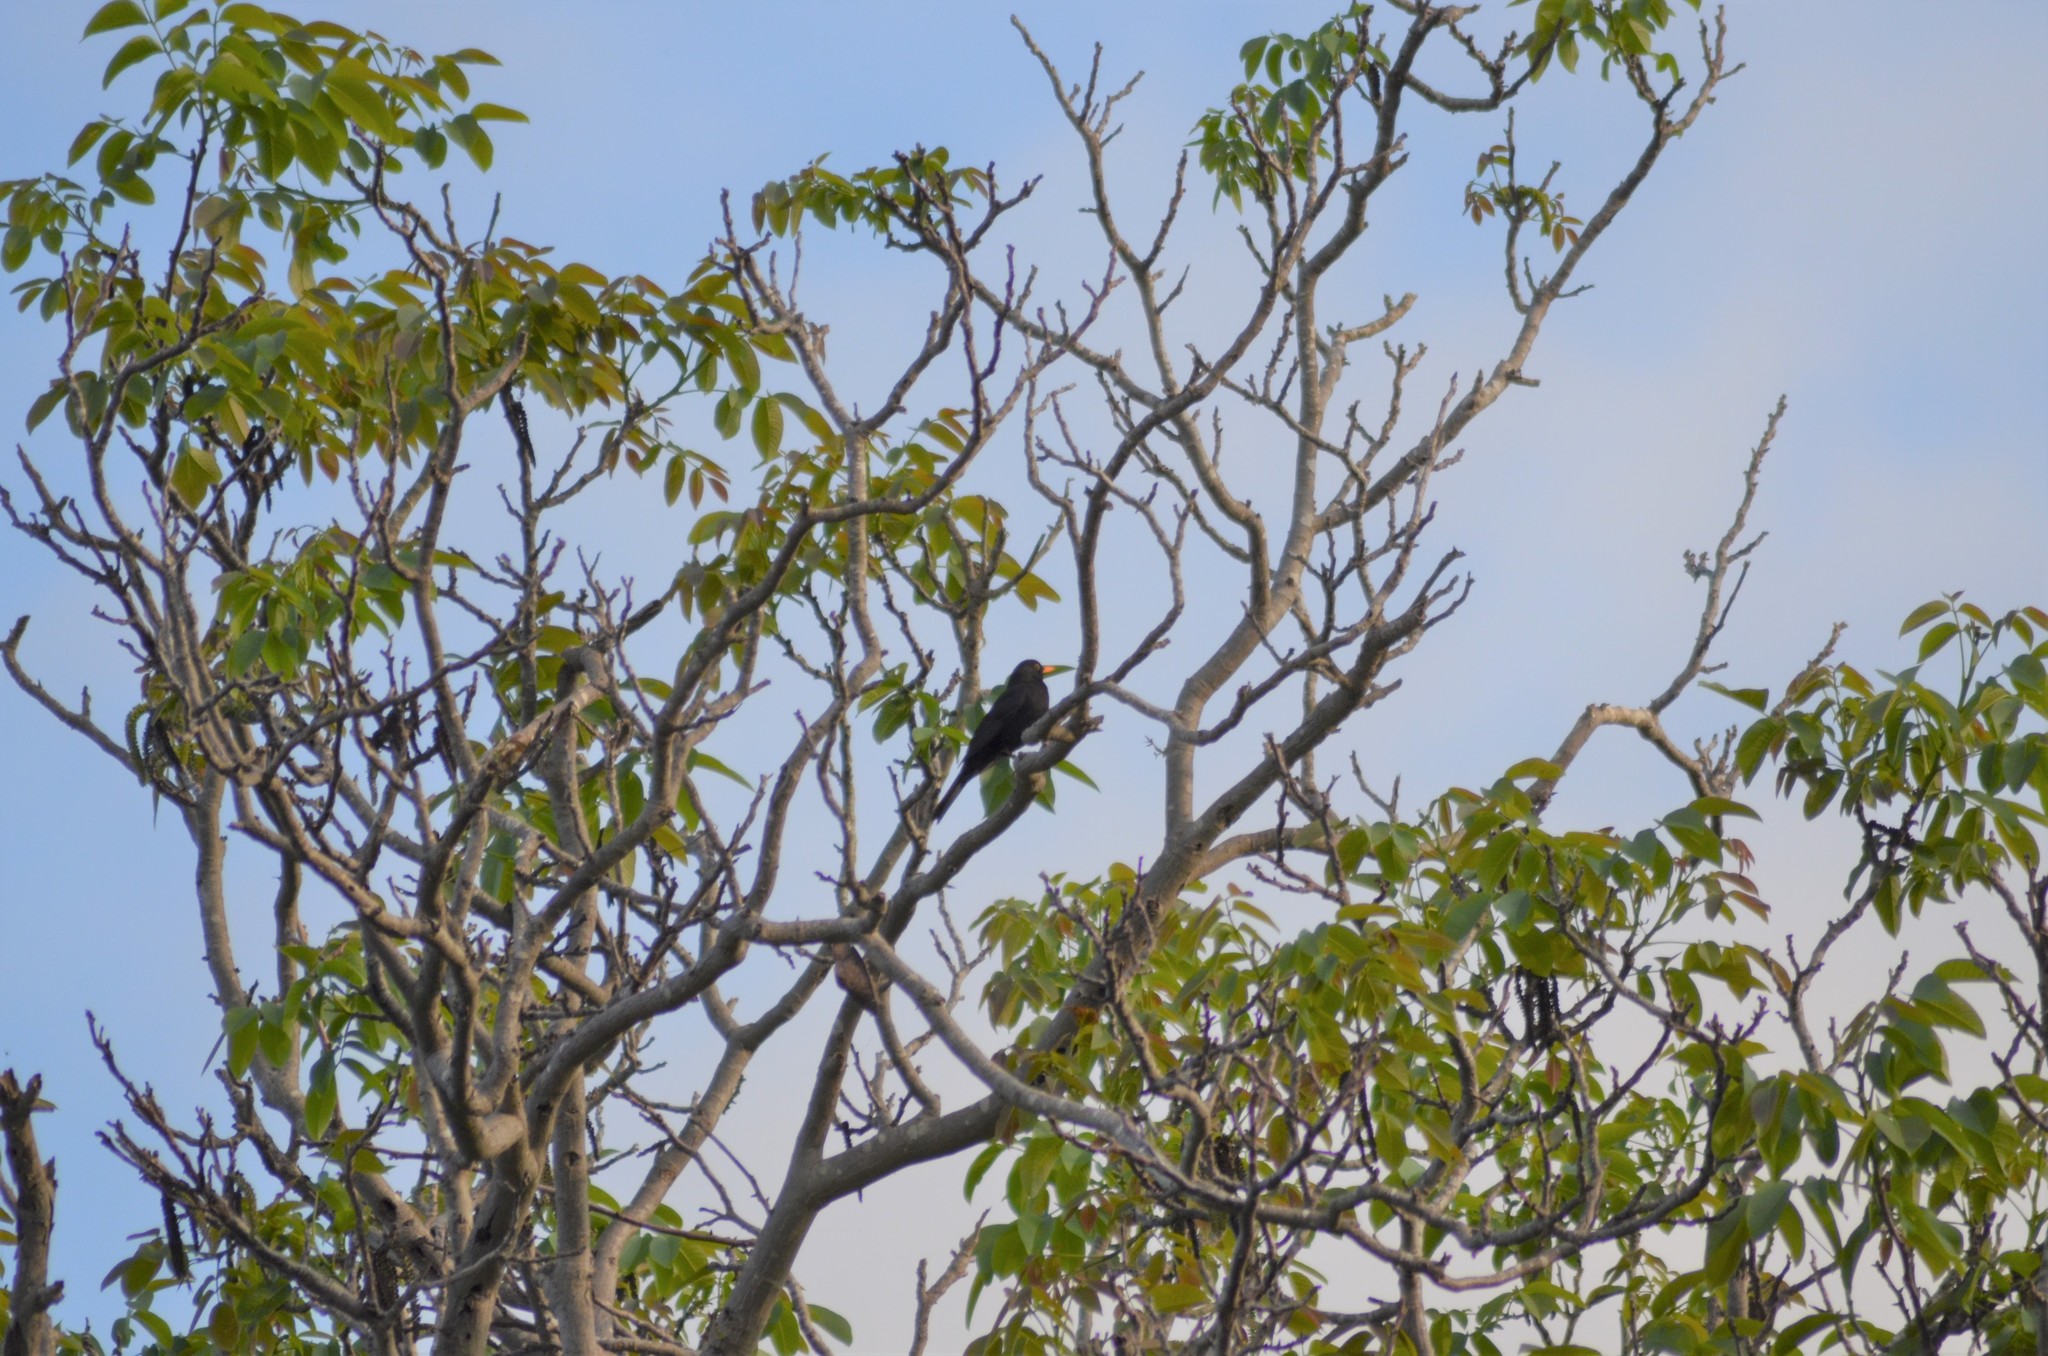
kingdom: Animalia
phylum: Chordata
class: Aves
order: Passeriformes
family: Turdidae
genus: Turdus
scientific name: Turdus merula
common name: Common blackbird
